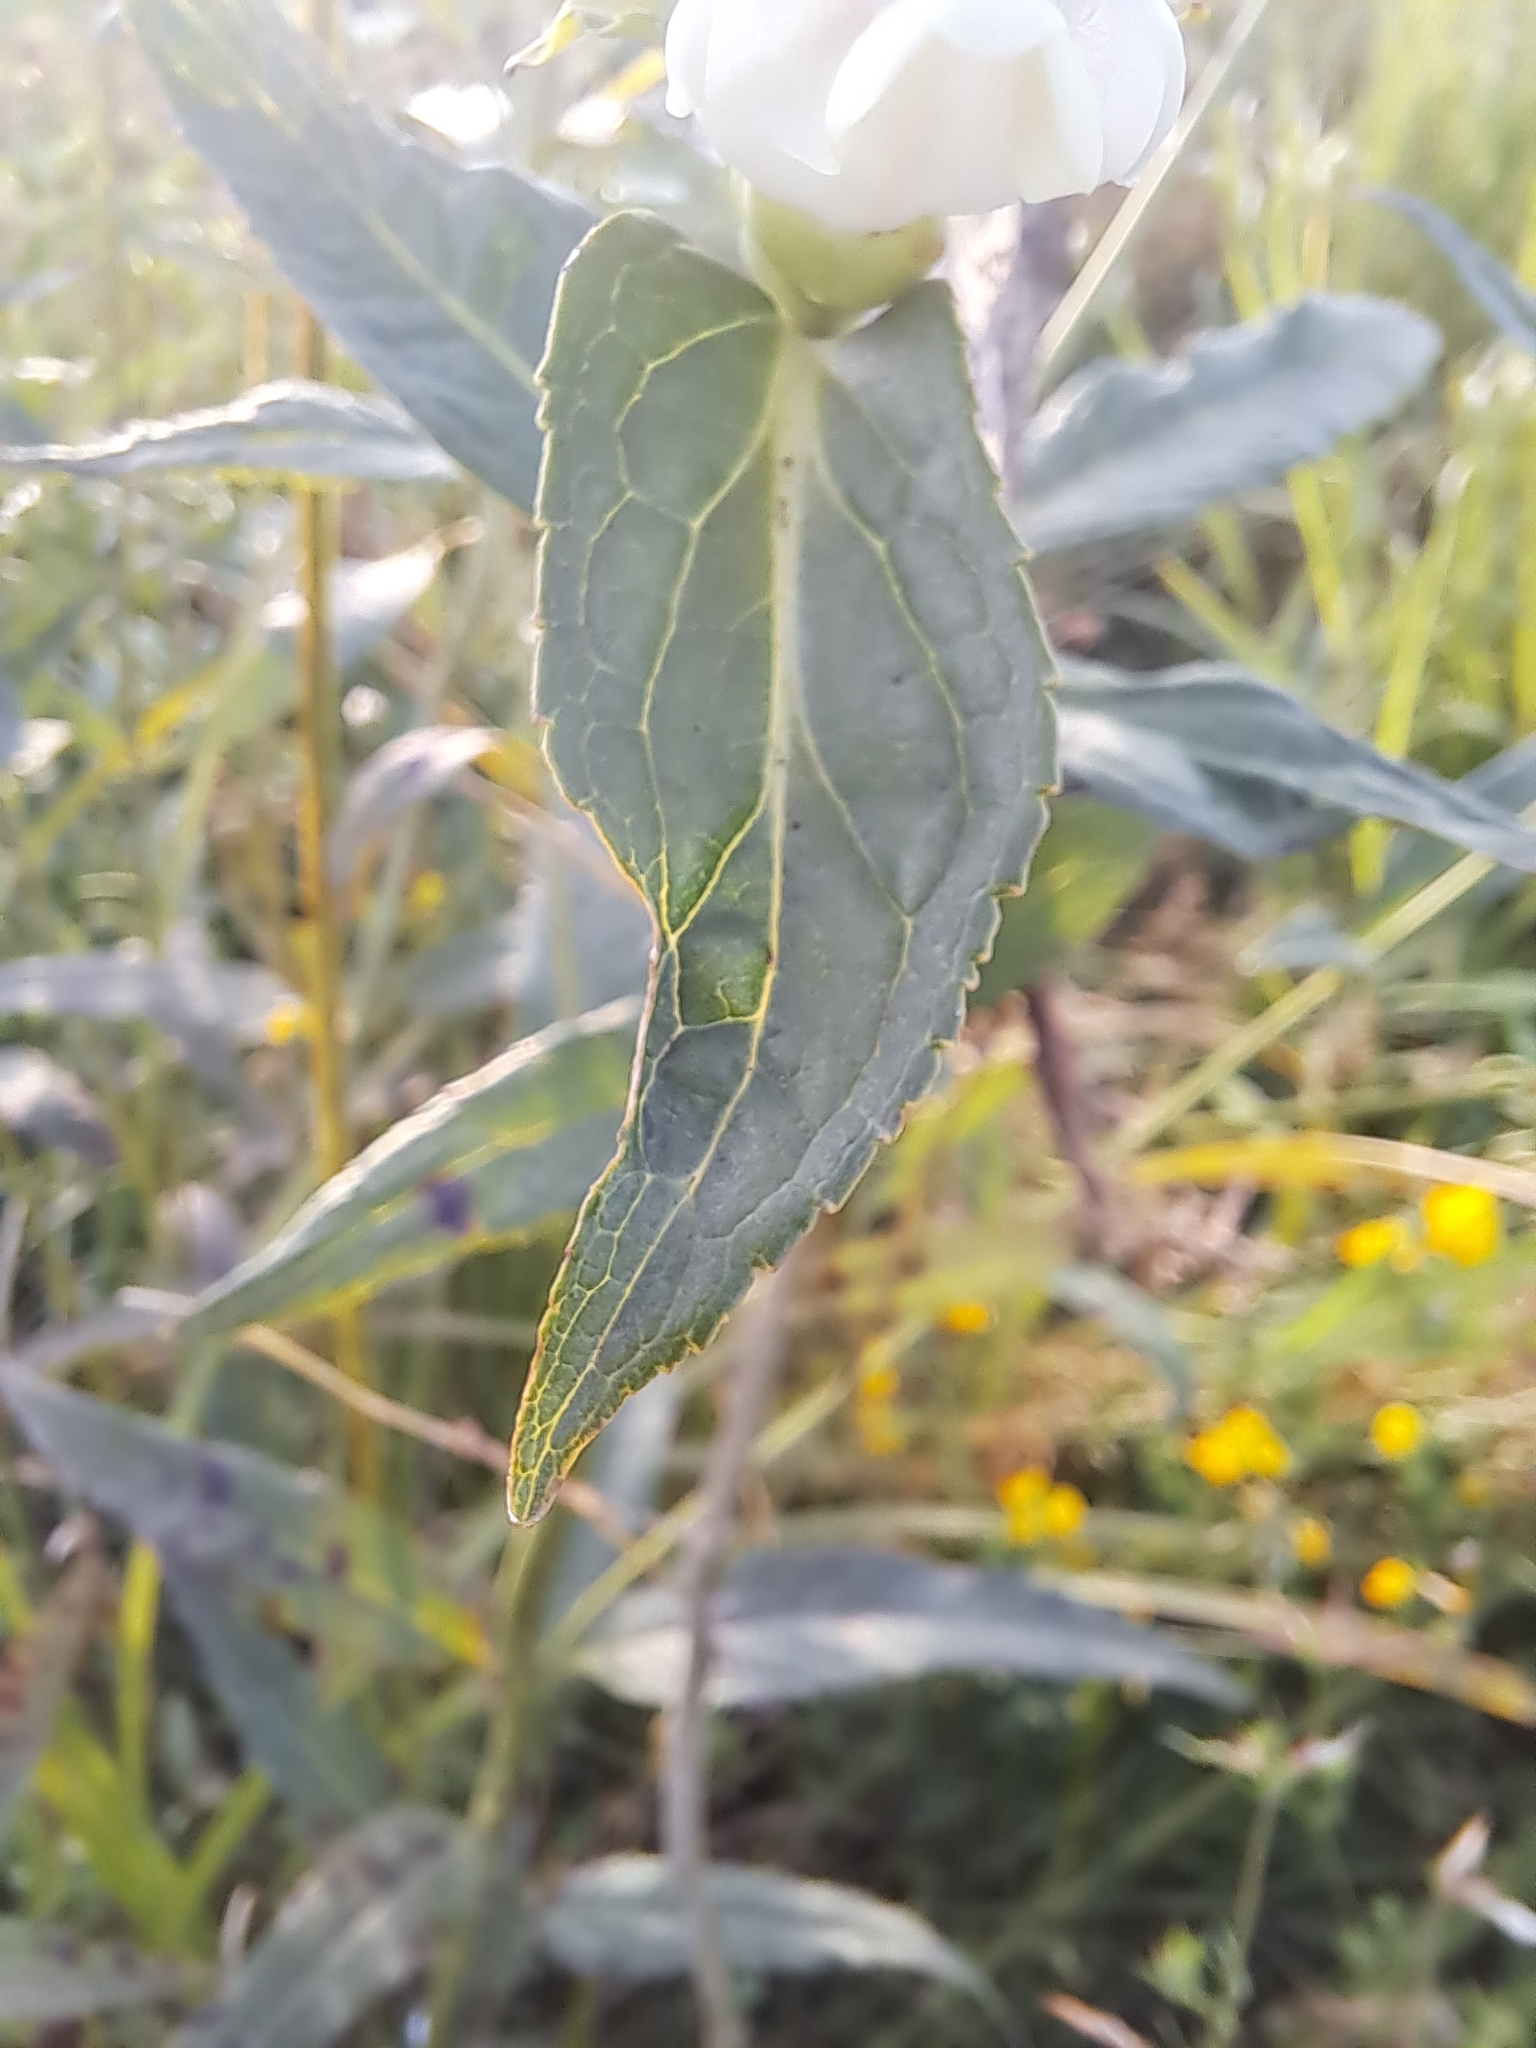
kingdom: Plantae
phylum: Tracheophyta
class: Magnoliopsida
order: Lamiales
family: Plantaginaceae
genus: Chelone
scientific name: Chelone glabra
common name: Snakehead
